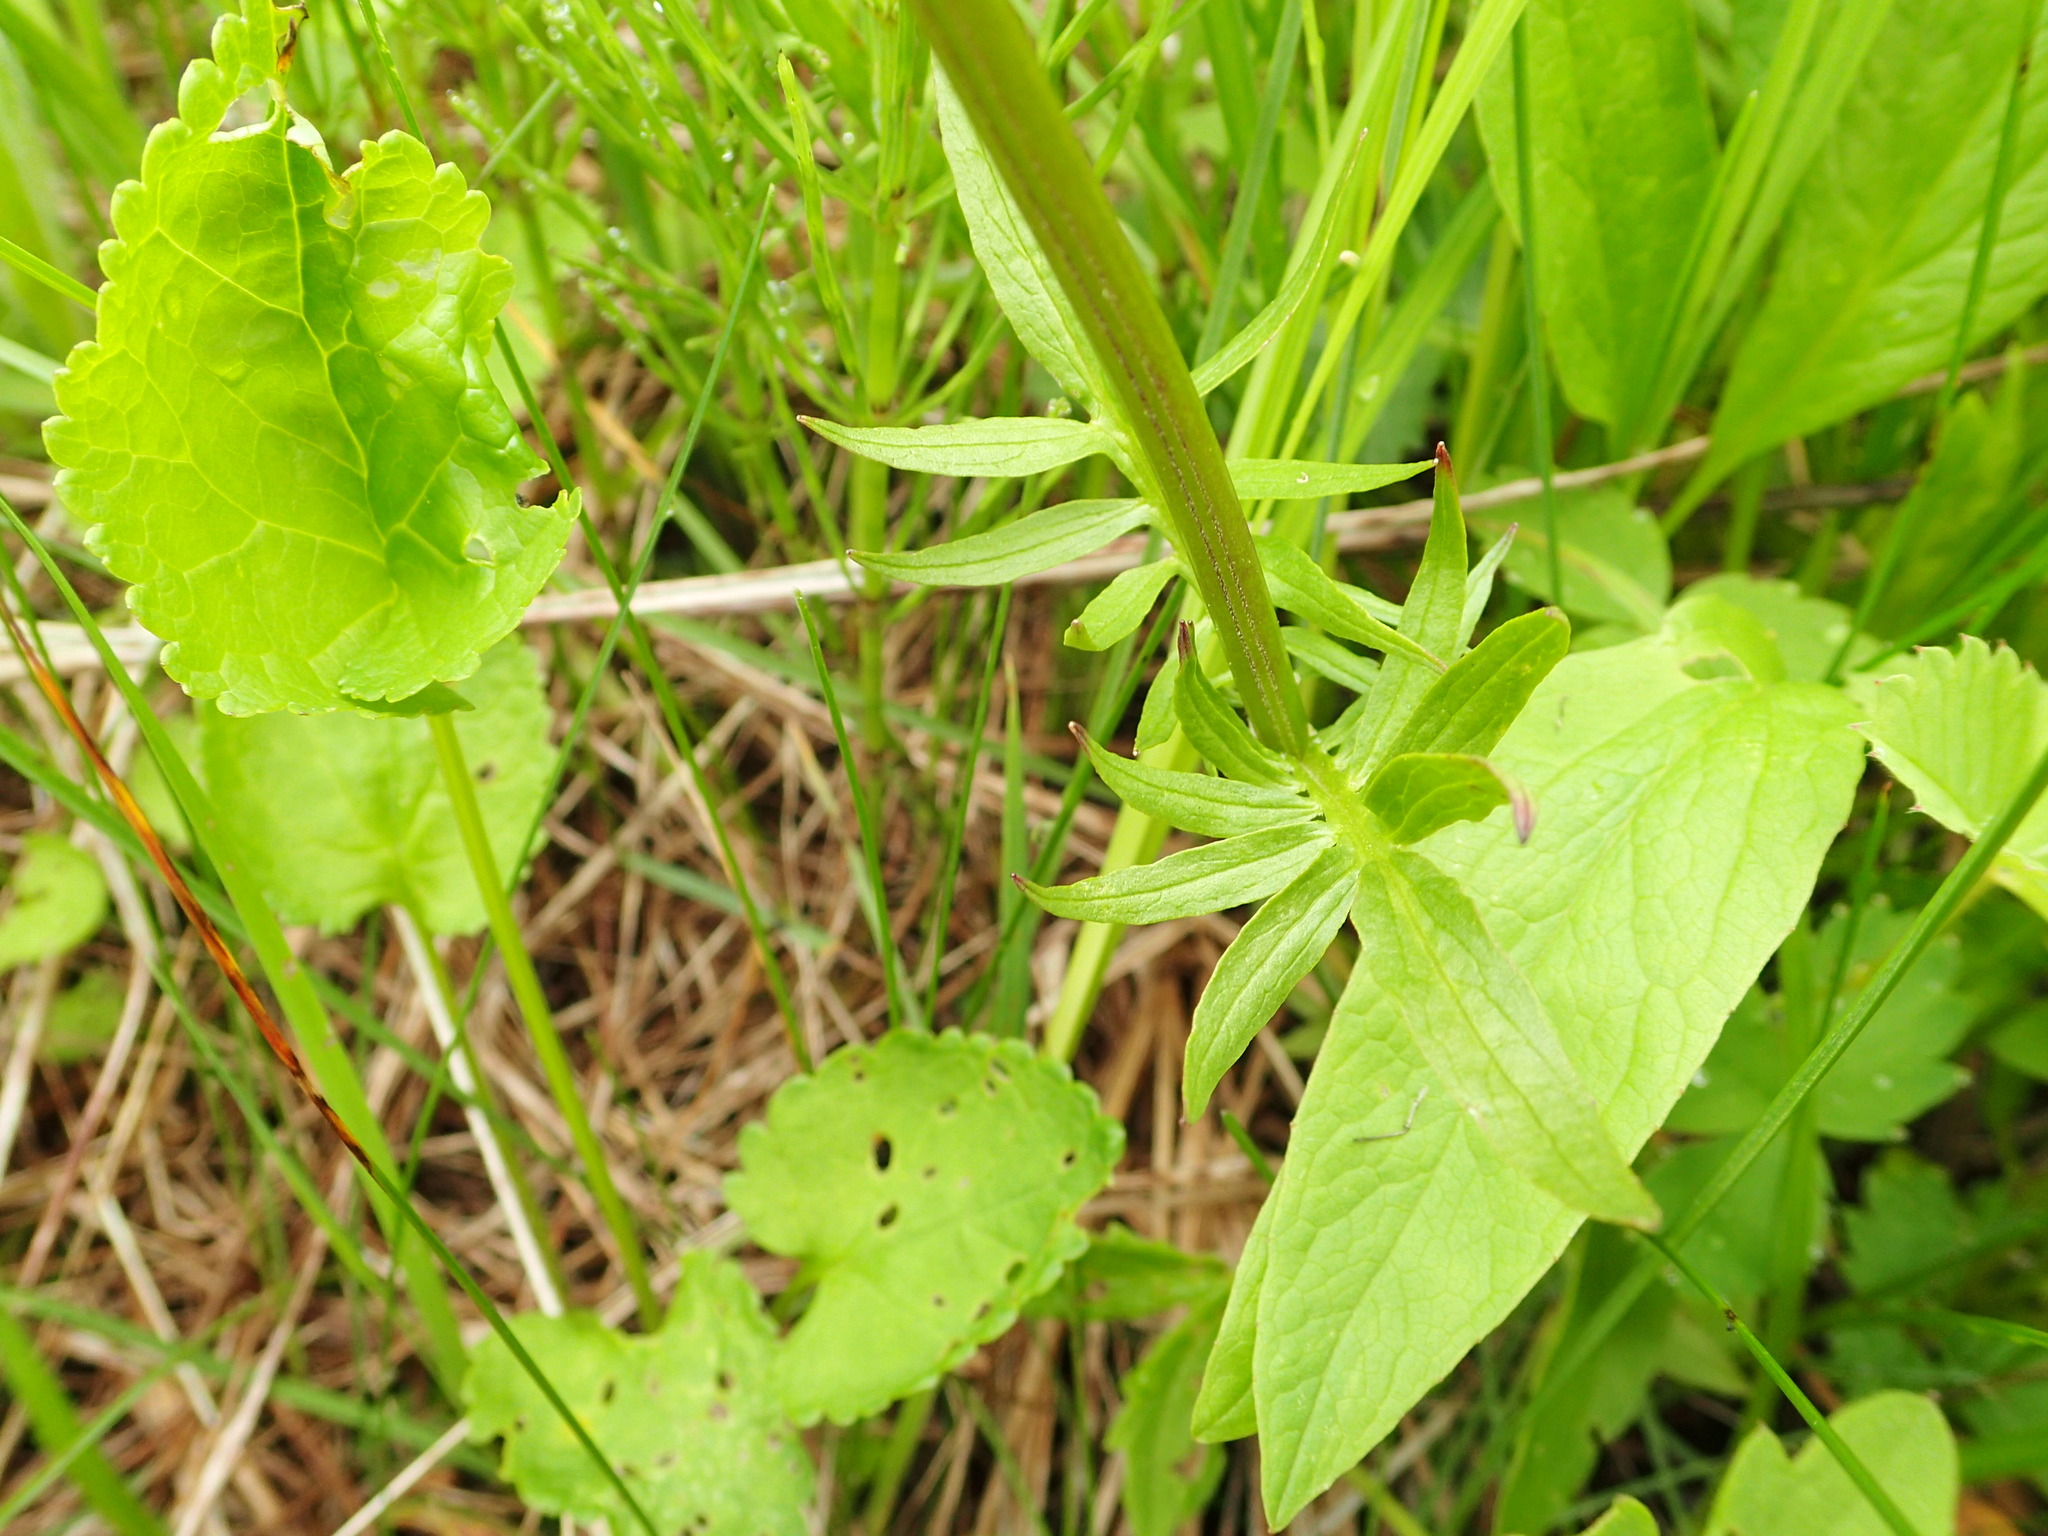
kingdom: Plantae
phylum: Tracheophyta
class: Magnoliopsida
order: Dipsacales
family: Caprifoliaceae
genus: Valeriana
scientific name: Valeriana dioica
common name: Marsh valerian
